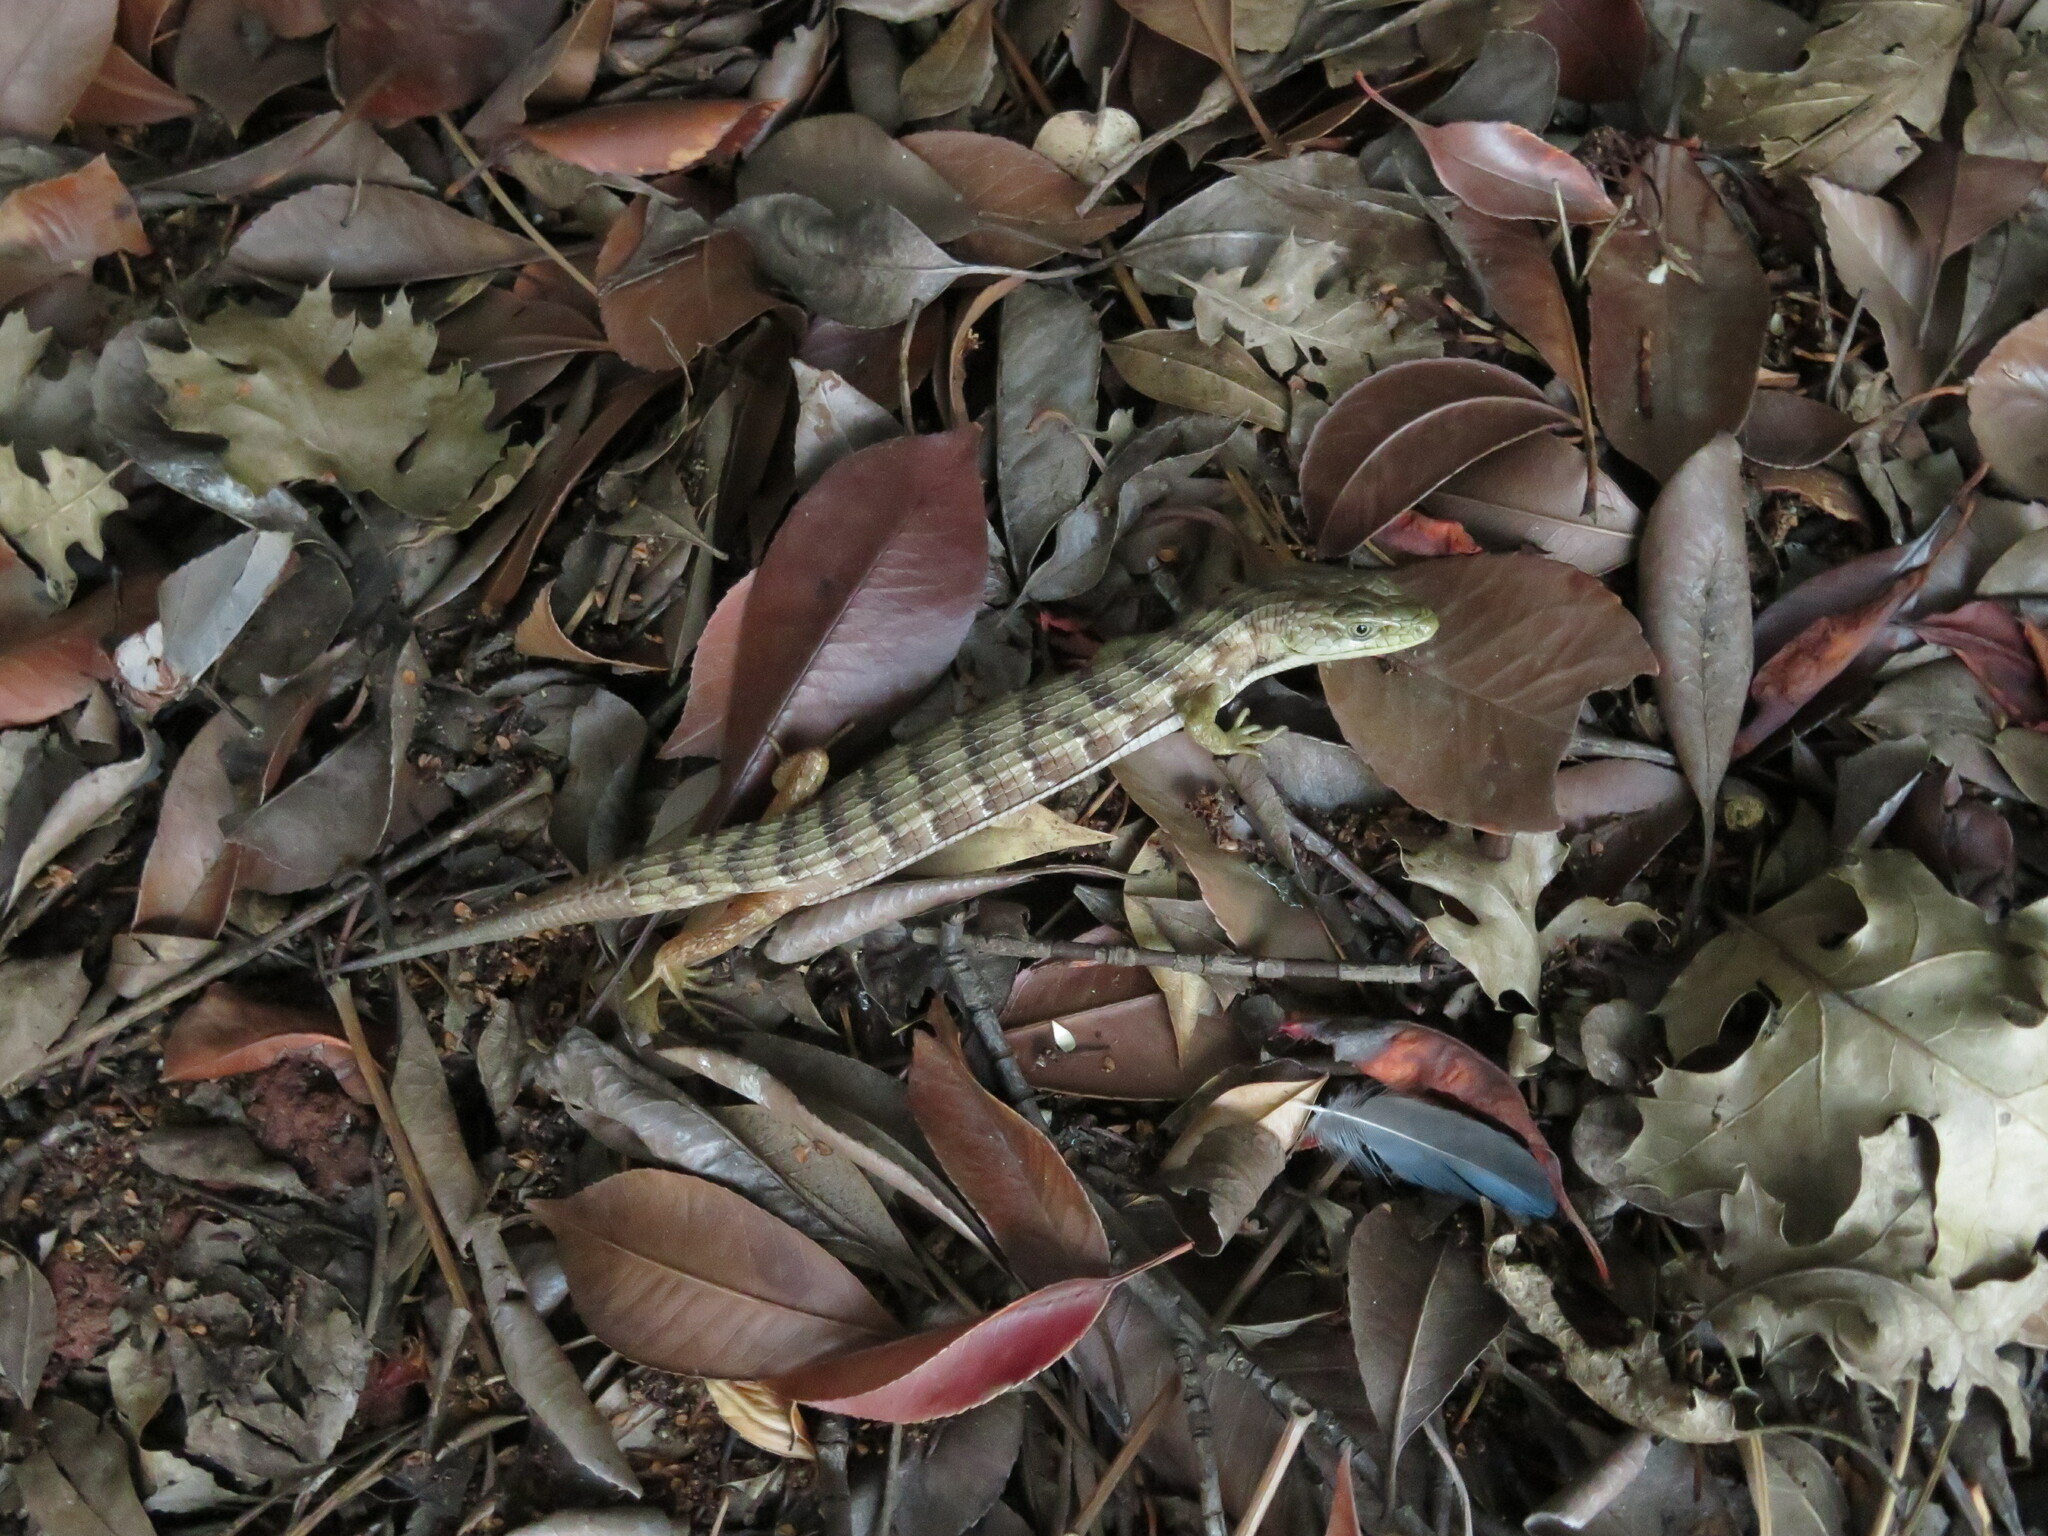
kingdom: Animalia
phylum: Chordata
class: Squamata
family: Anguidae
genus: Elgaria
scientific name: Elgaria multicarinata
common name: Southern alligator lizard
